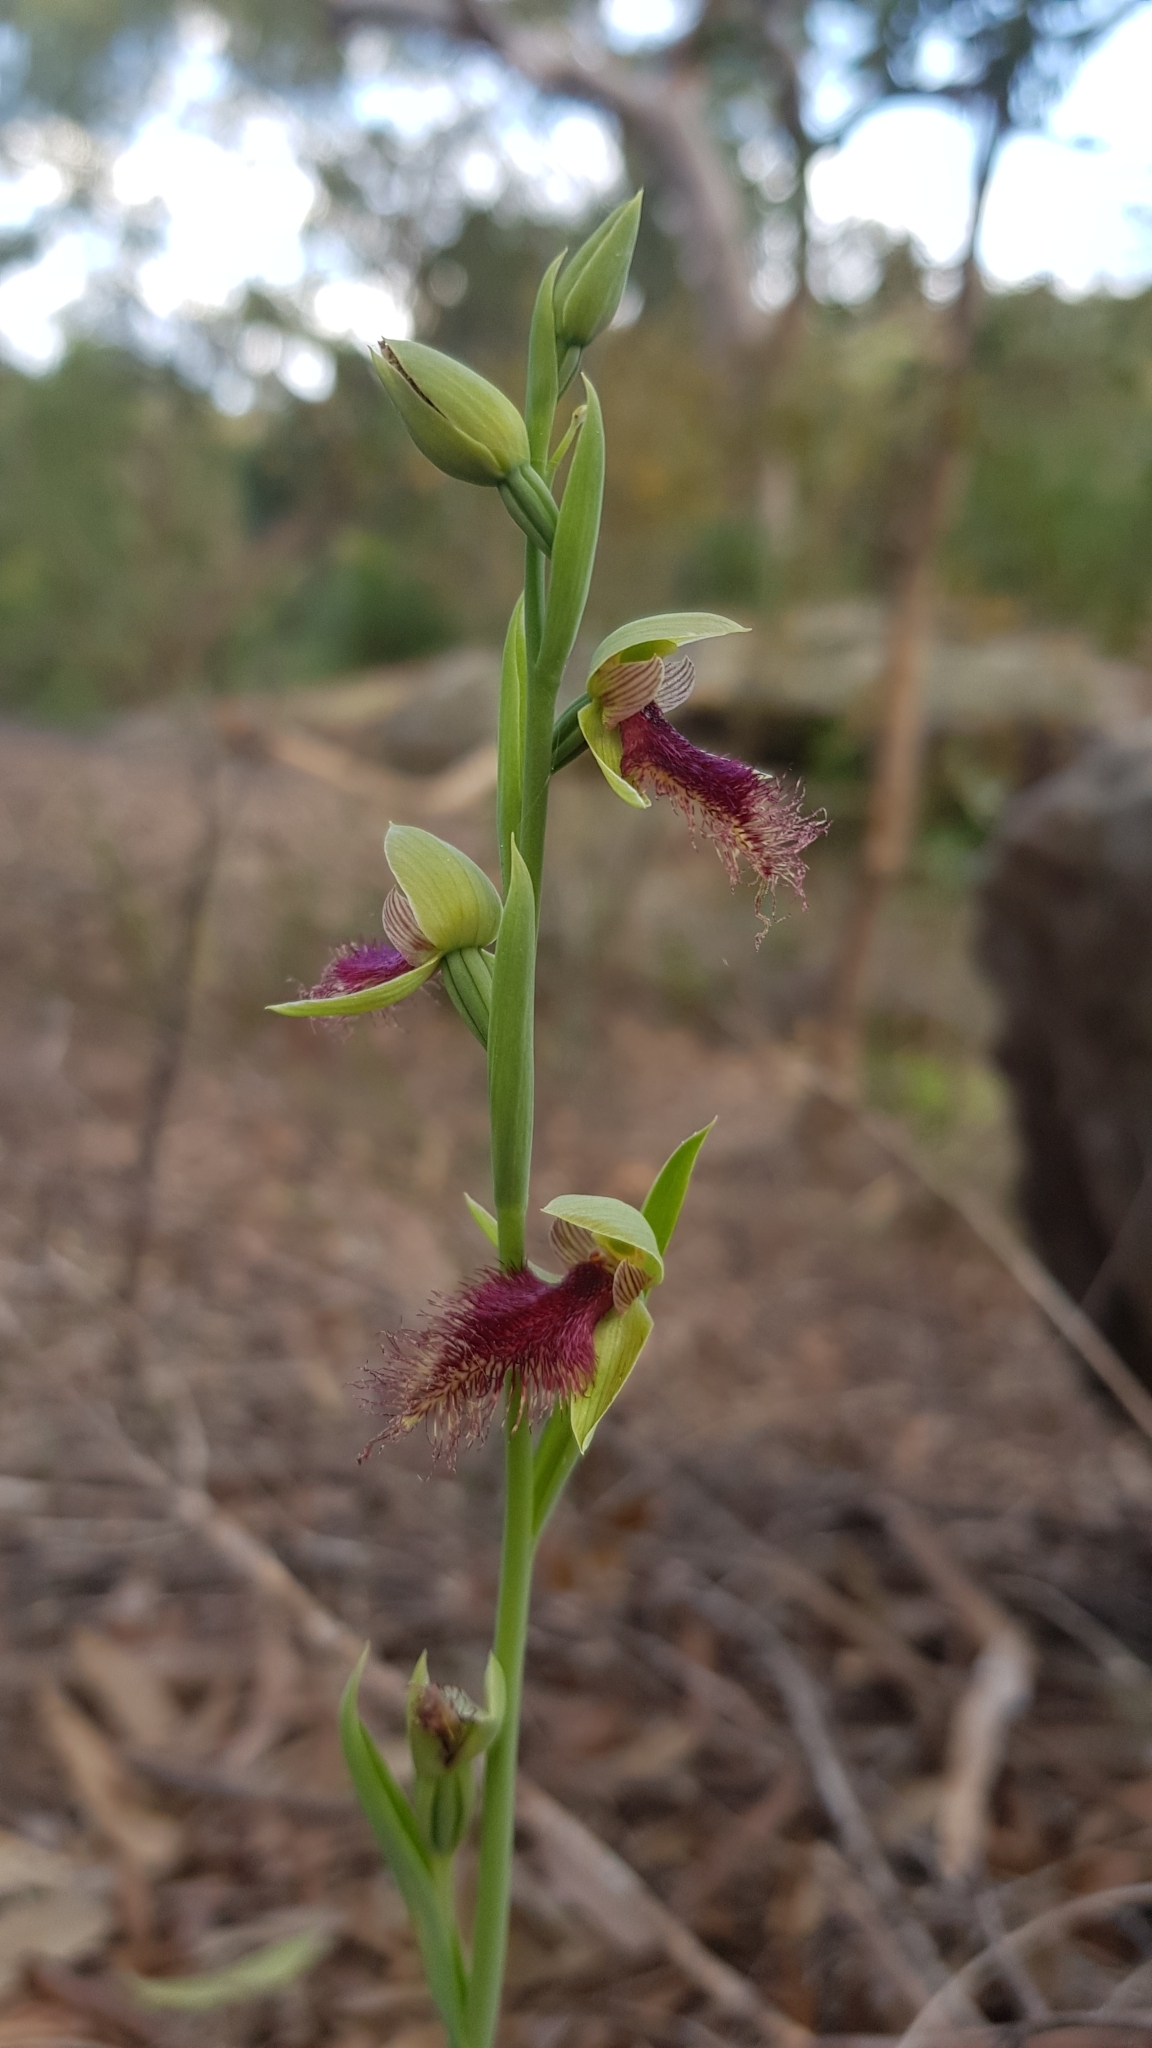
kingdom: Plantae
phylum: Tracheophyta
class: Liliopsida
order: Asparagales
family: Orchidaceae
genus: Calochilus
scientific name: Calochilus robertsonii
